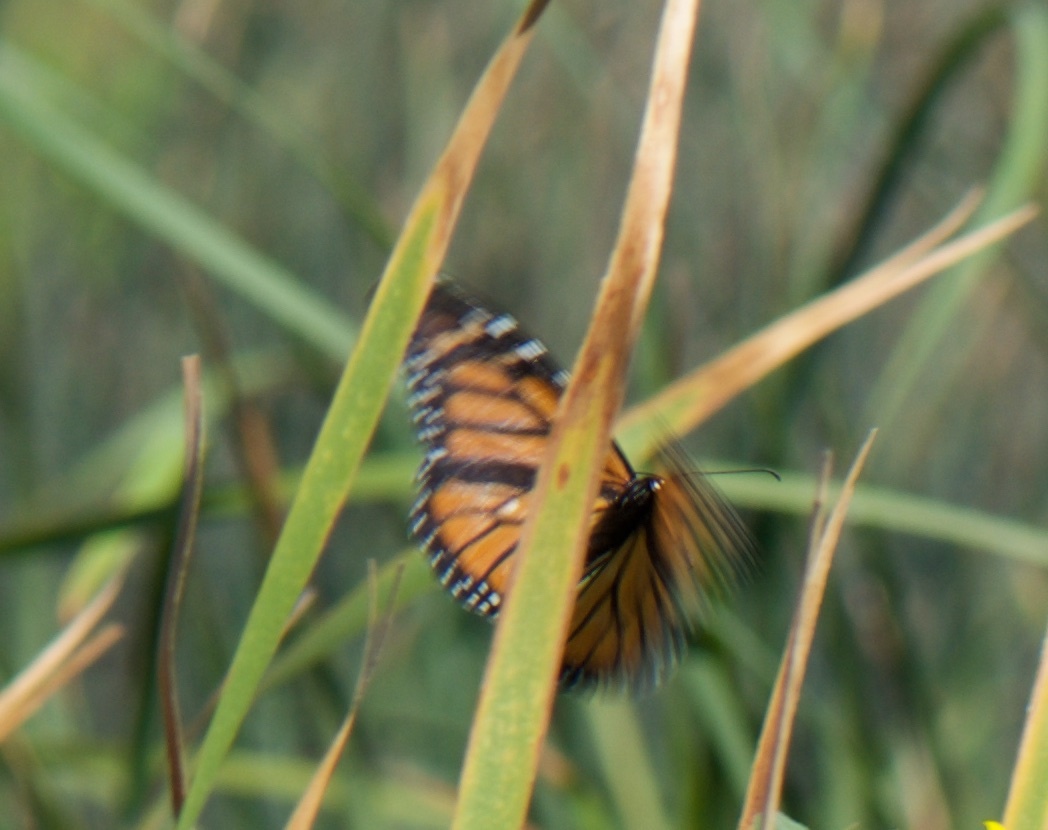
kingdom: Animalia
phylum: Arthropoda
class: Insecta
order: Lepidoptera
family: Nymphalidae
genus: Danaus
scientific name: Danaus plexippus
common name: Monarch
